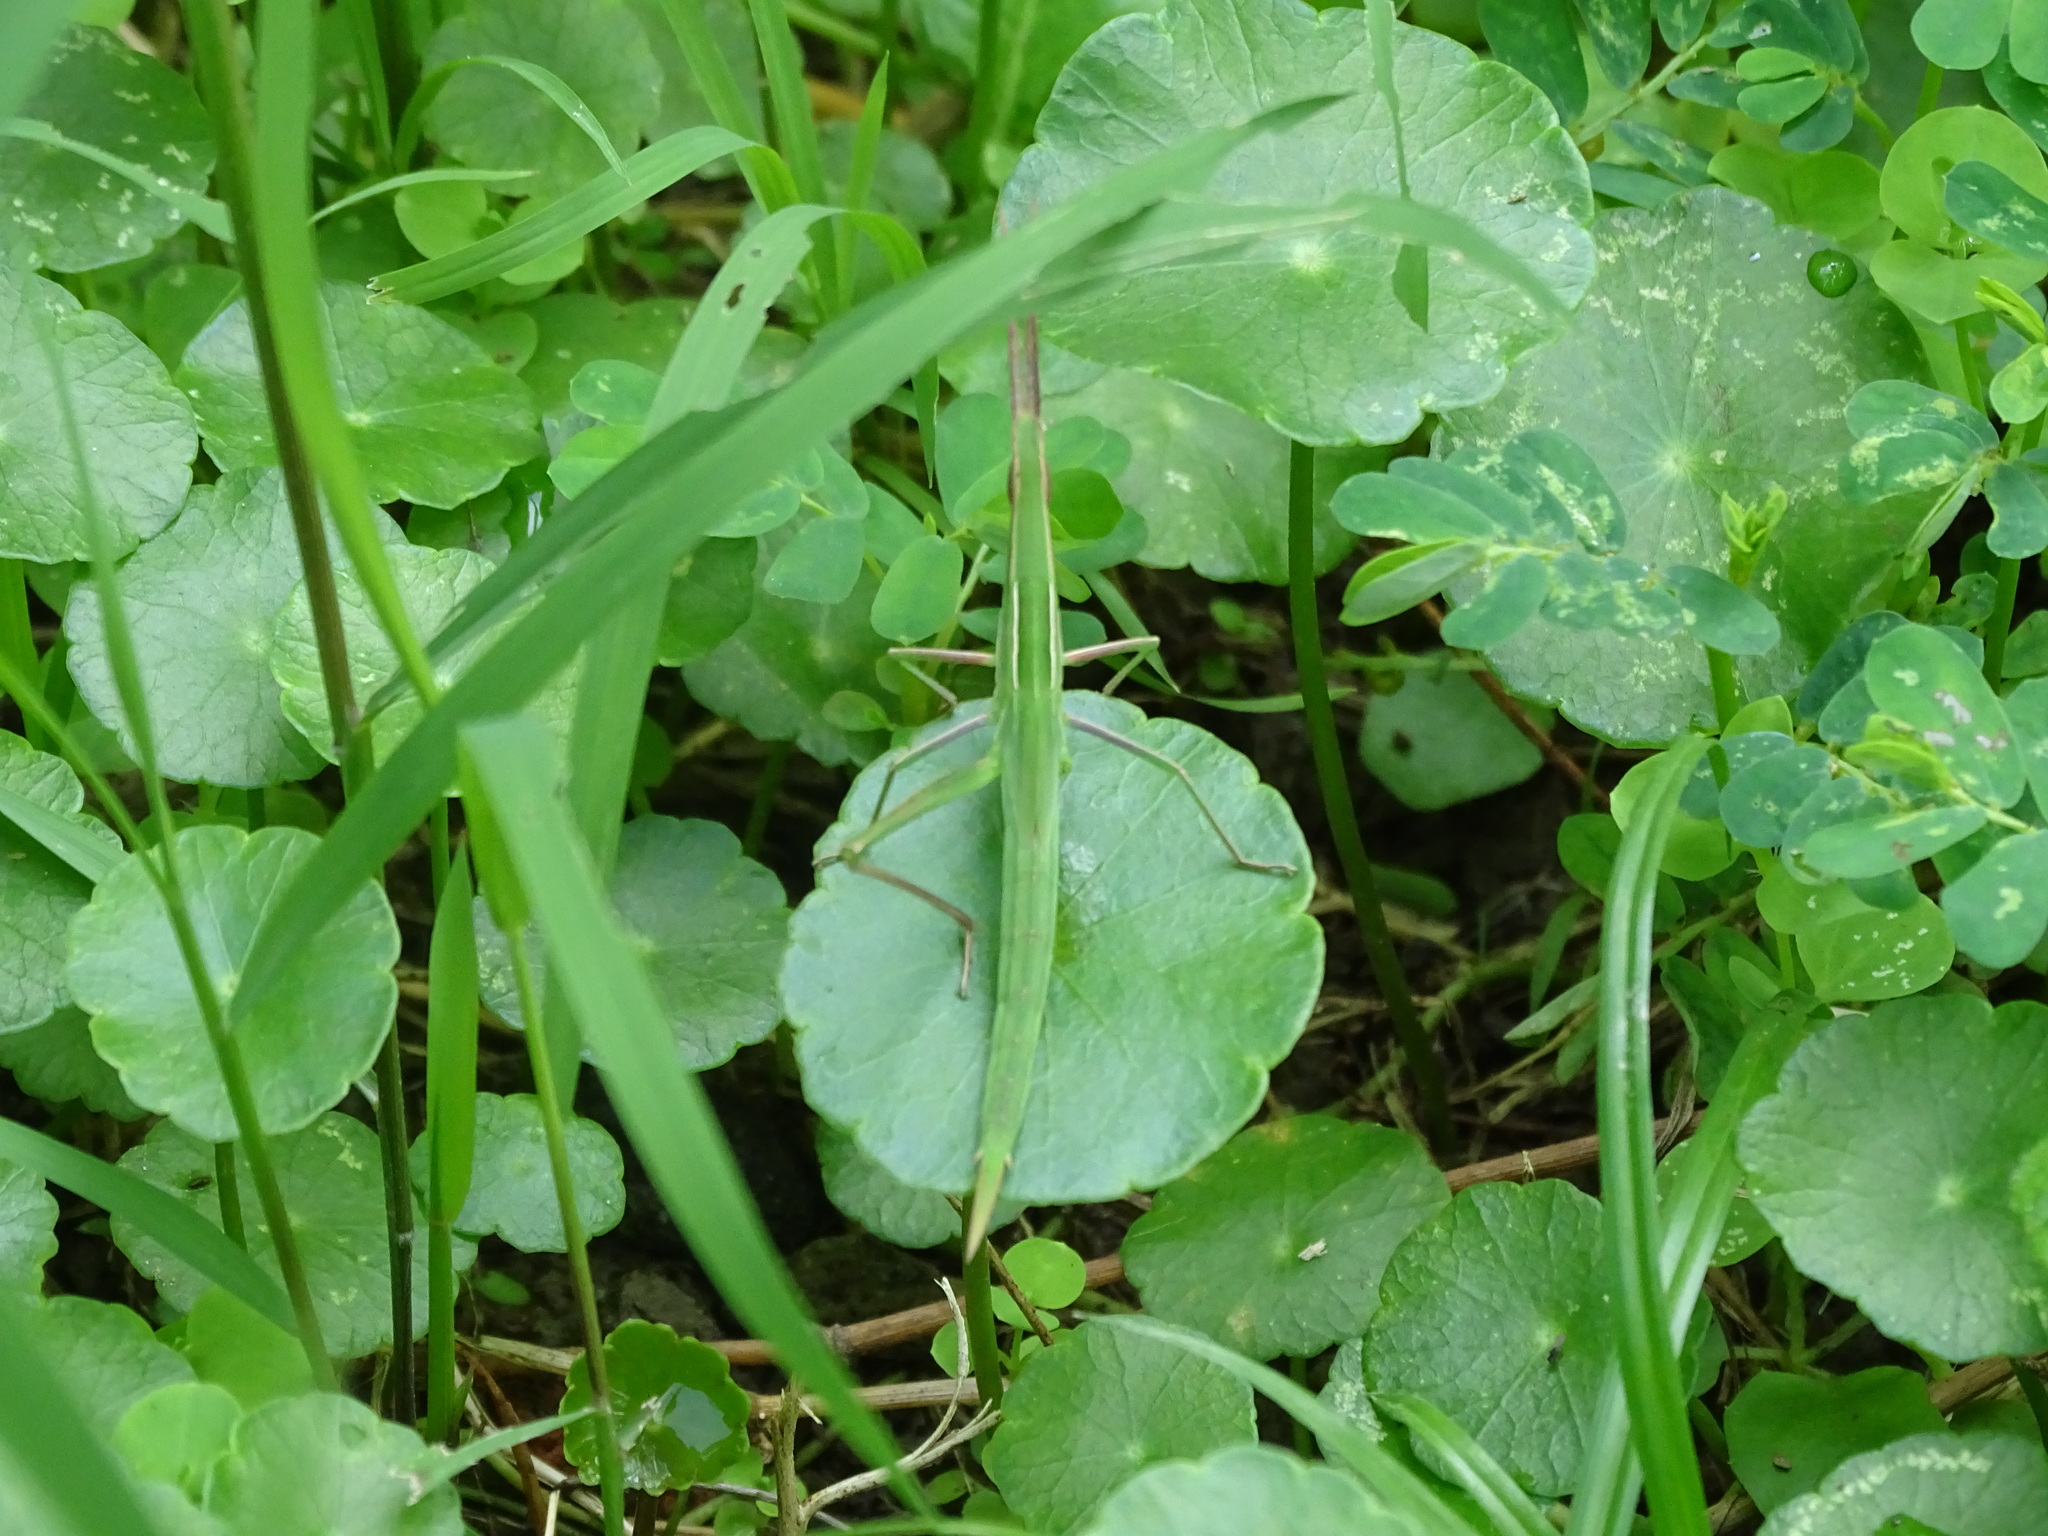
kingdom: Animalia
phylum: Arthropoda
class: Insecta
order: Orthoptera
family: Acrididae
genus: Acrida
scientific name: Acrida cinerea
